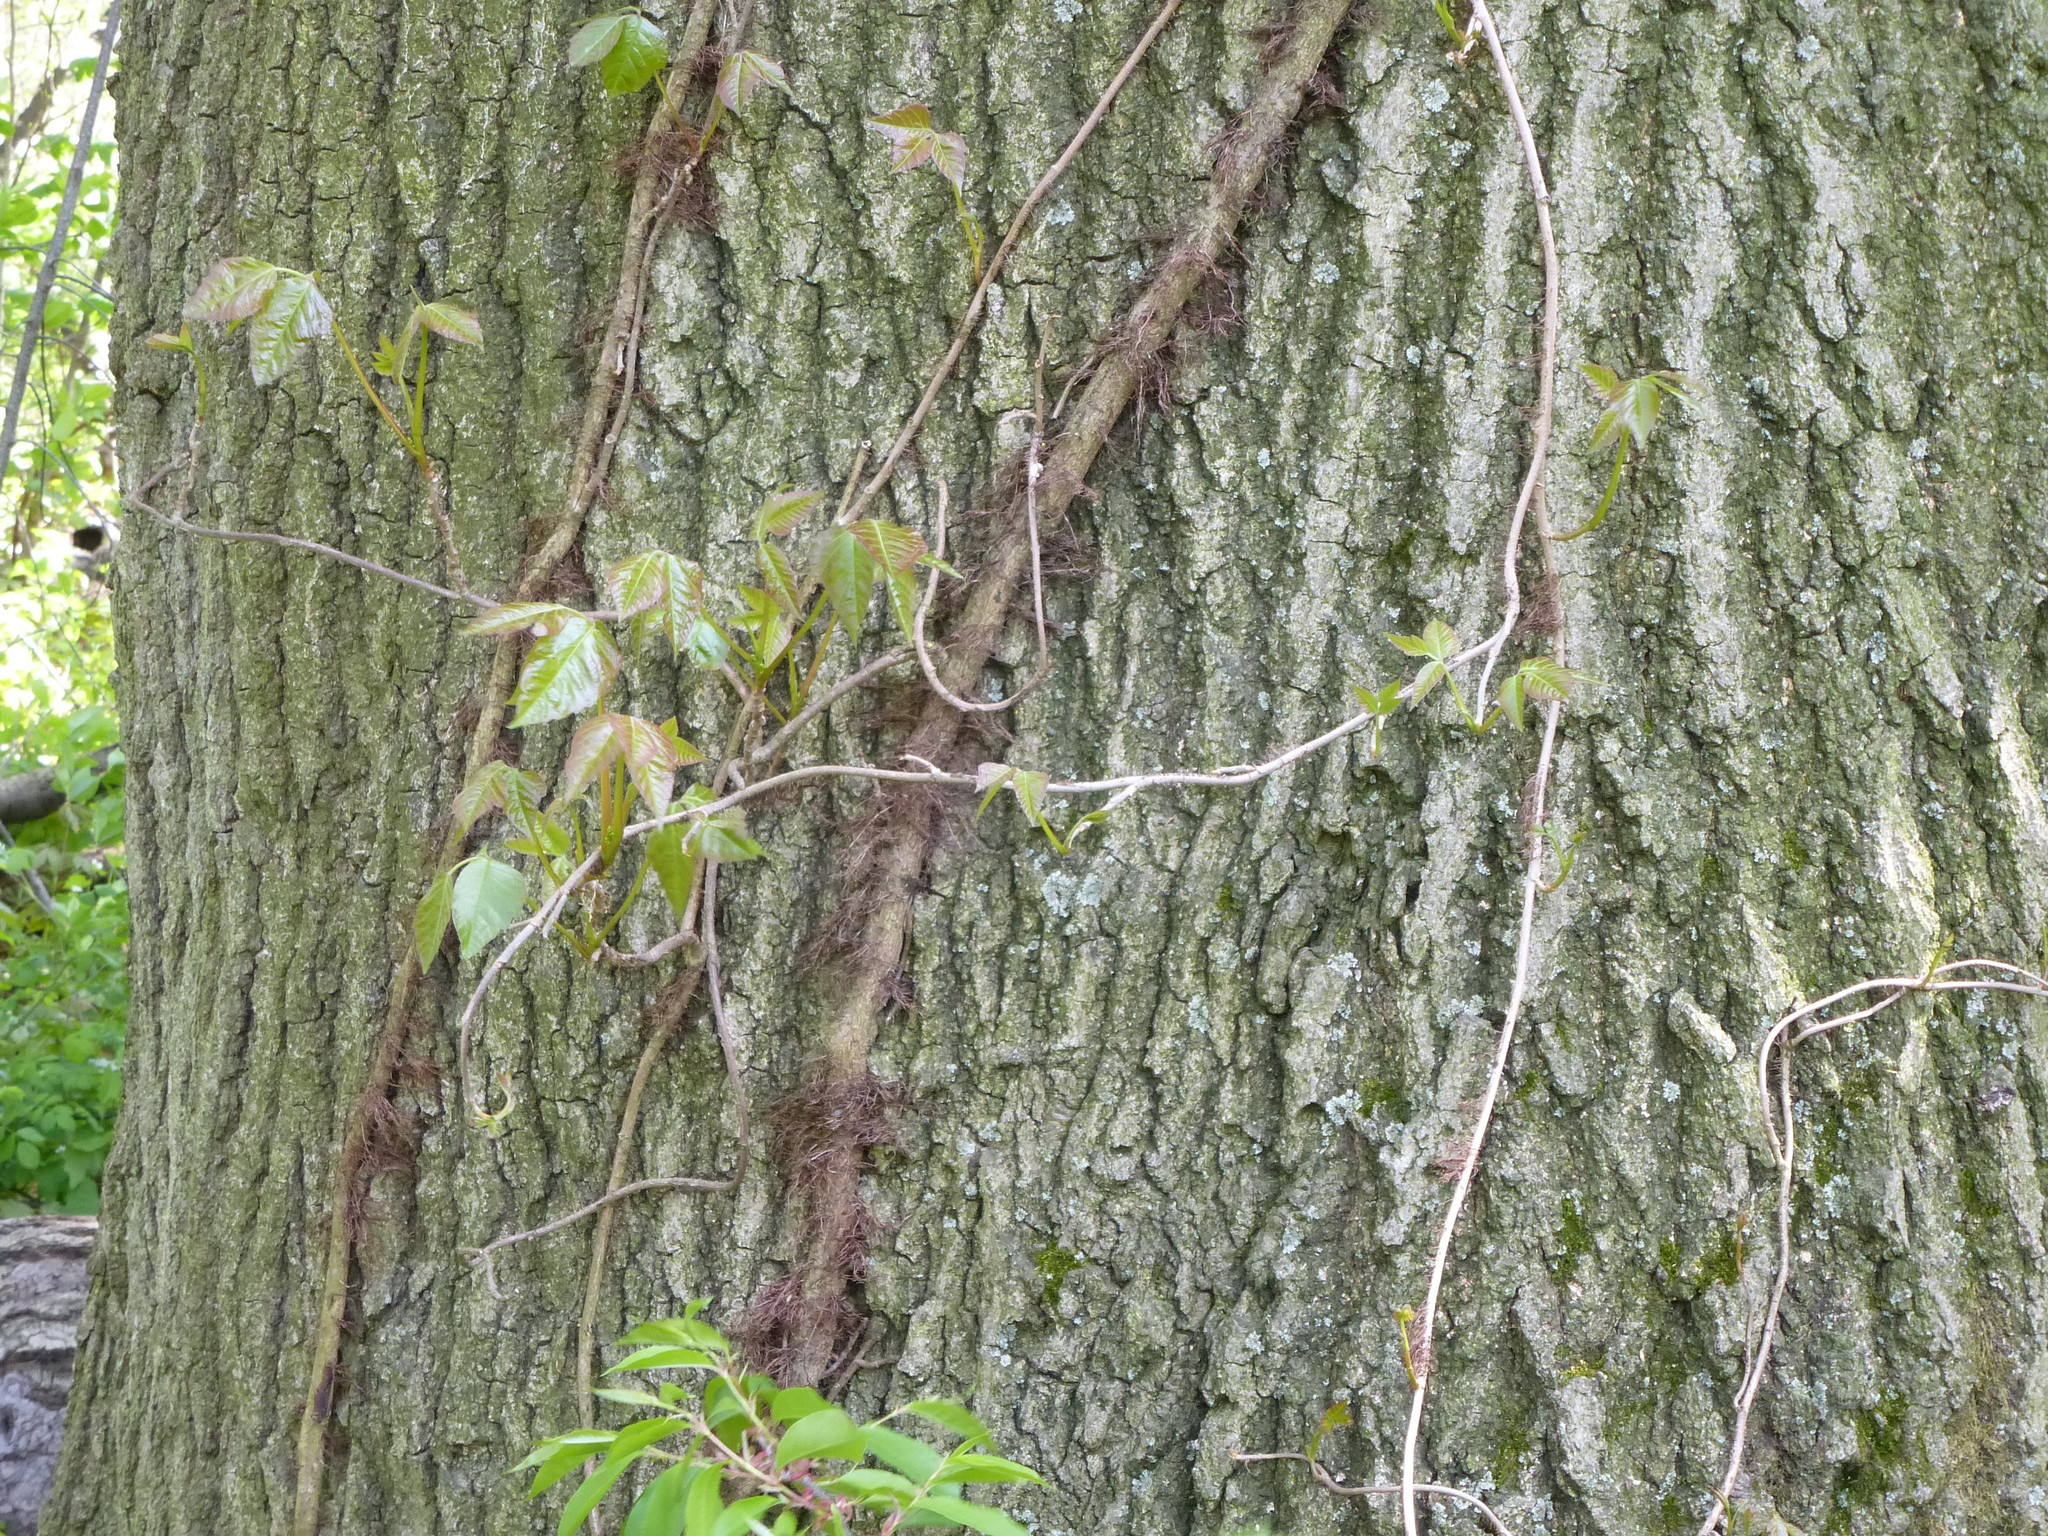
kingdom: Plantae
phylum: Tracheophyta
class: Magnoliopsida
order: Sapindales
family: Anacardiaceae
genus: Toxicodendron
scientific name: Toxicodendron radicans
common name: Poison ivy
